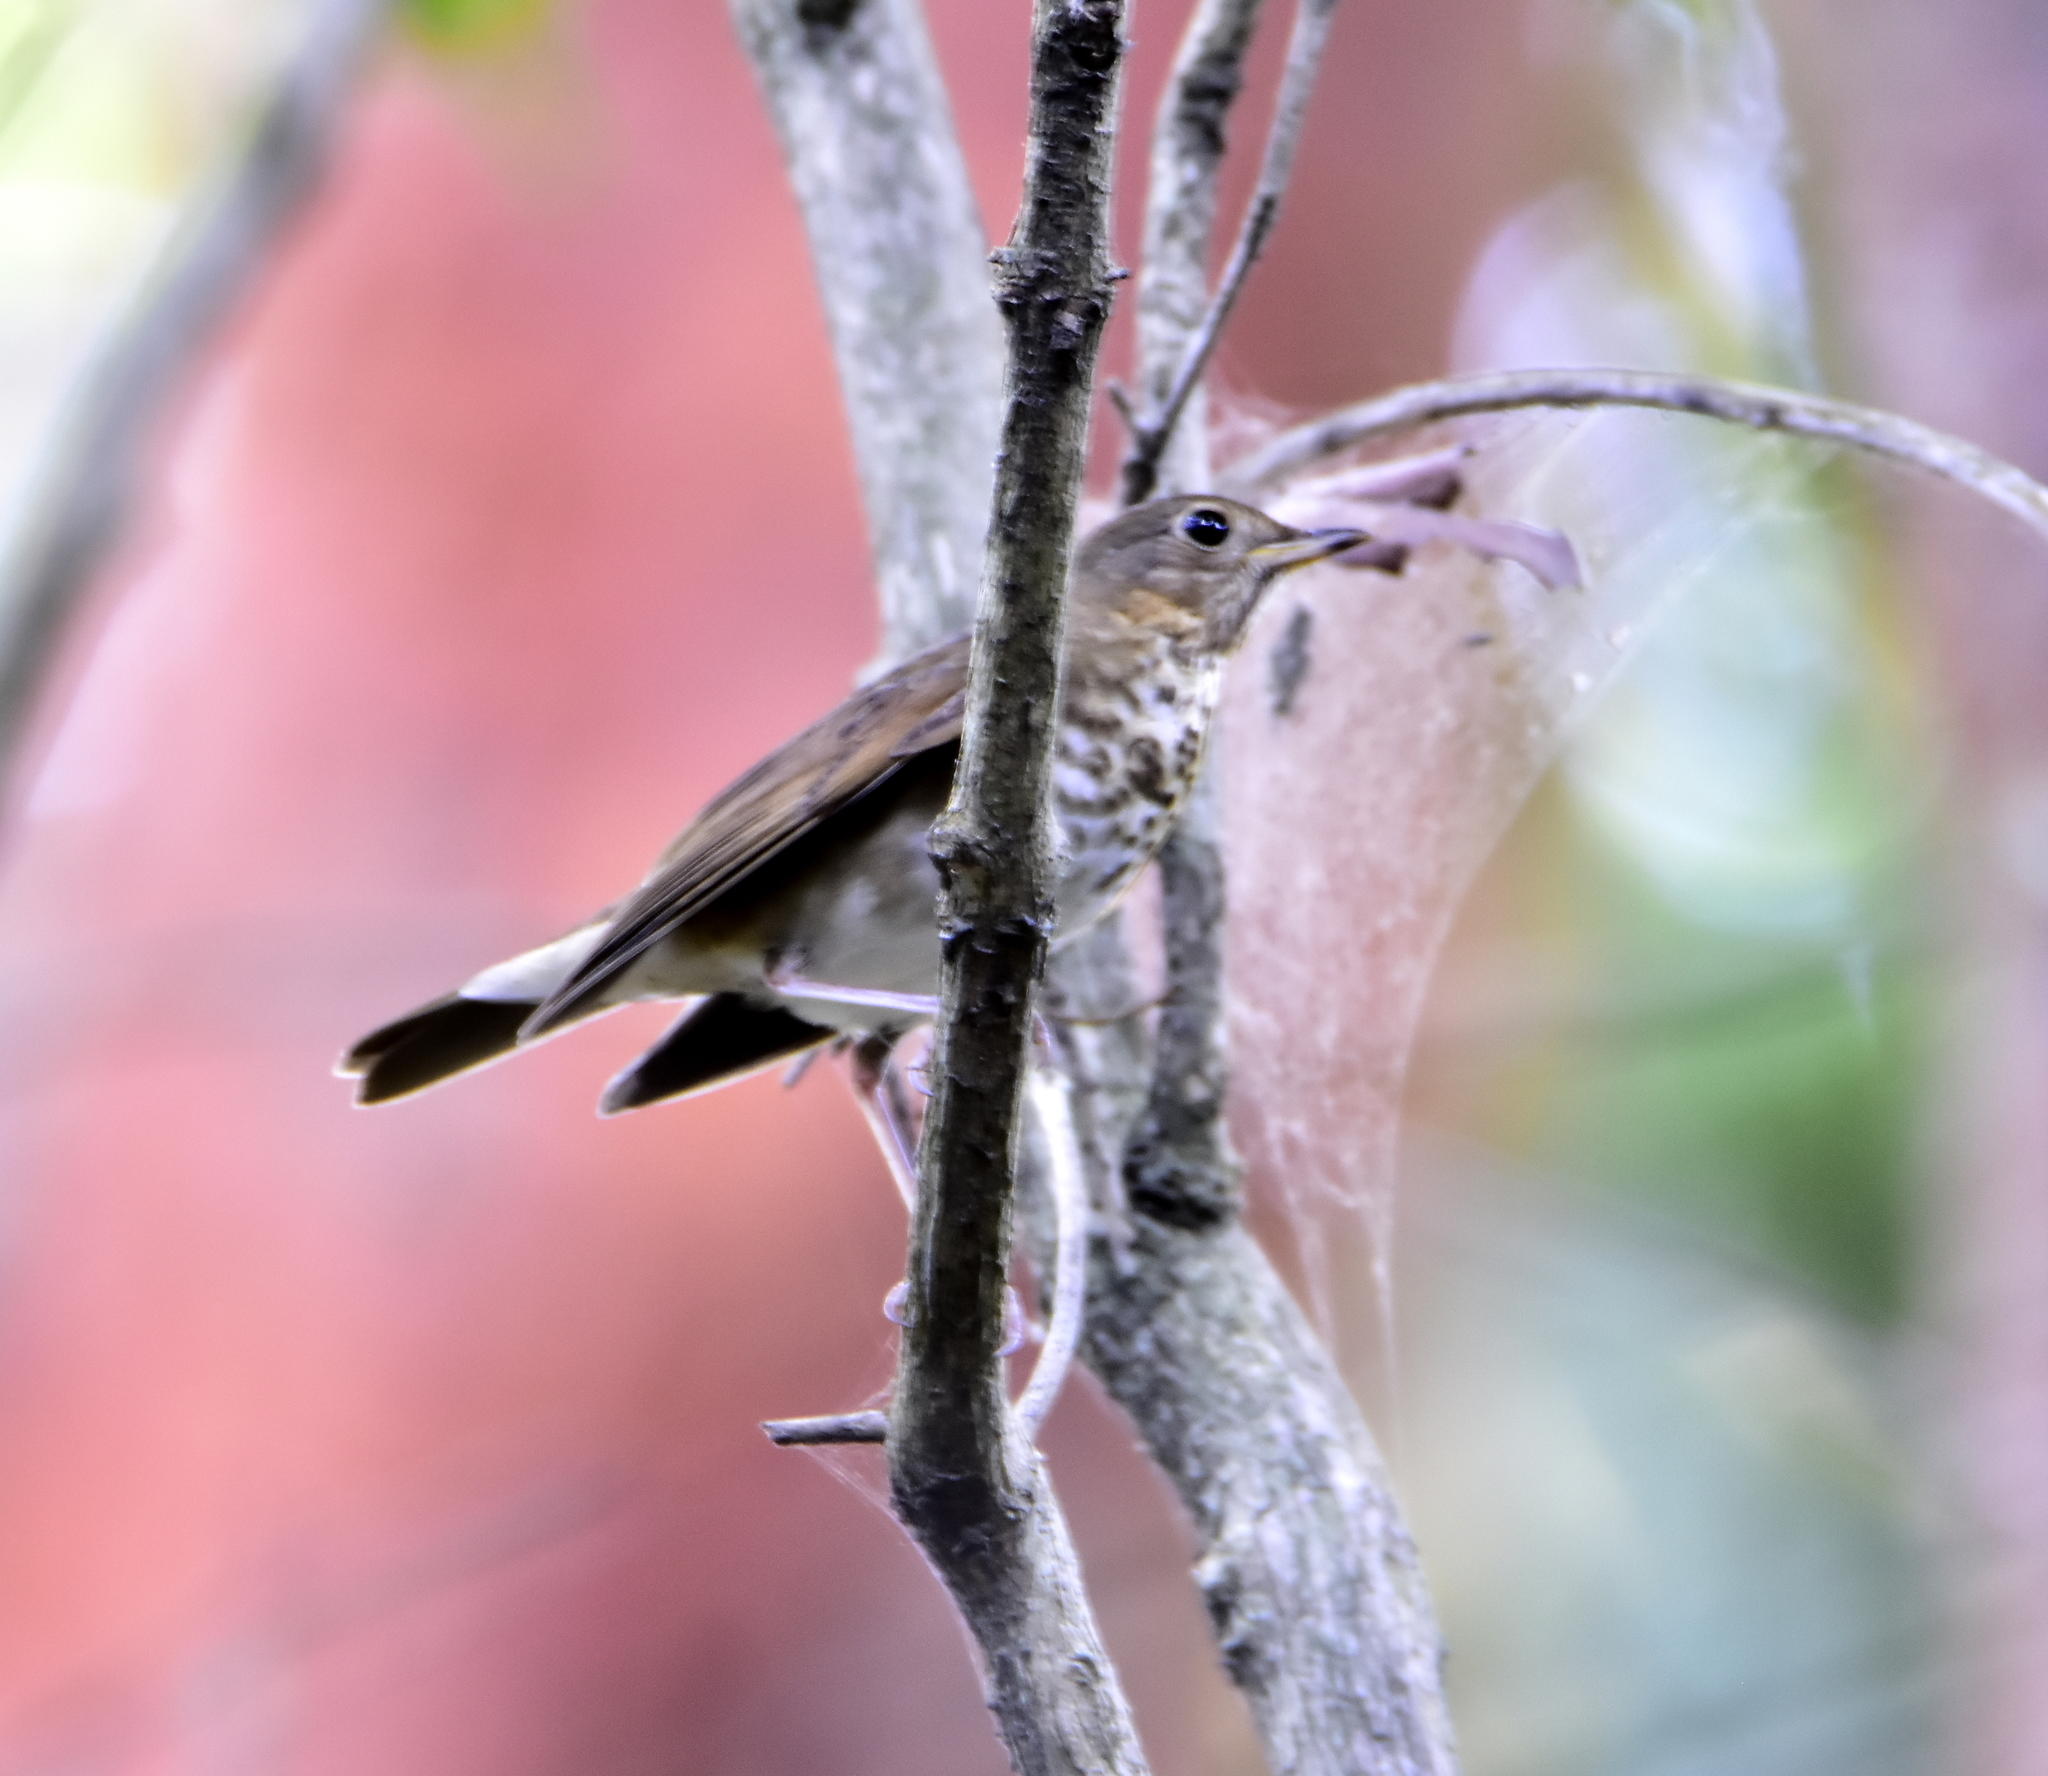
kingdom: Animalia
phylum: Chordata
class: Aves
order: Passeriformes
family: Turdidae
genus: Catharus
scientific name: Catharus guttatus
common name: Hermit thrush
